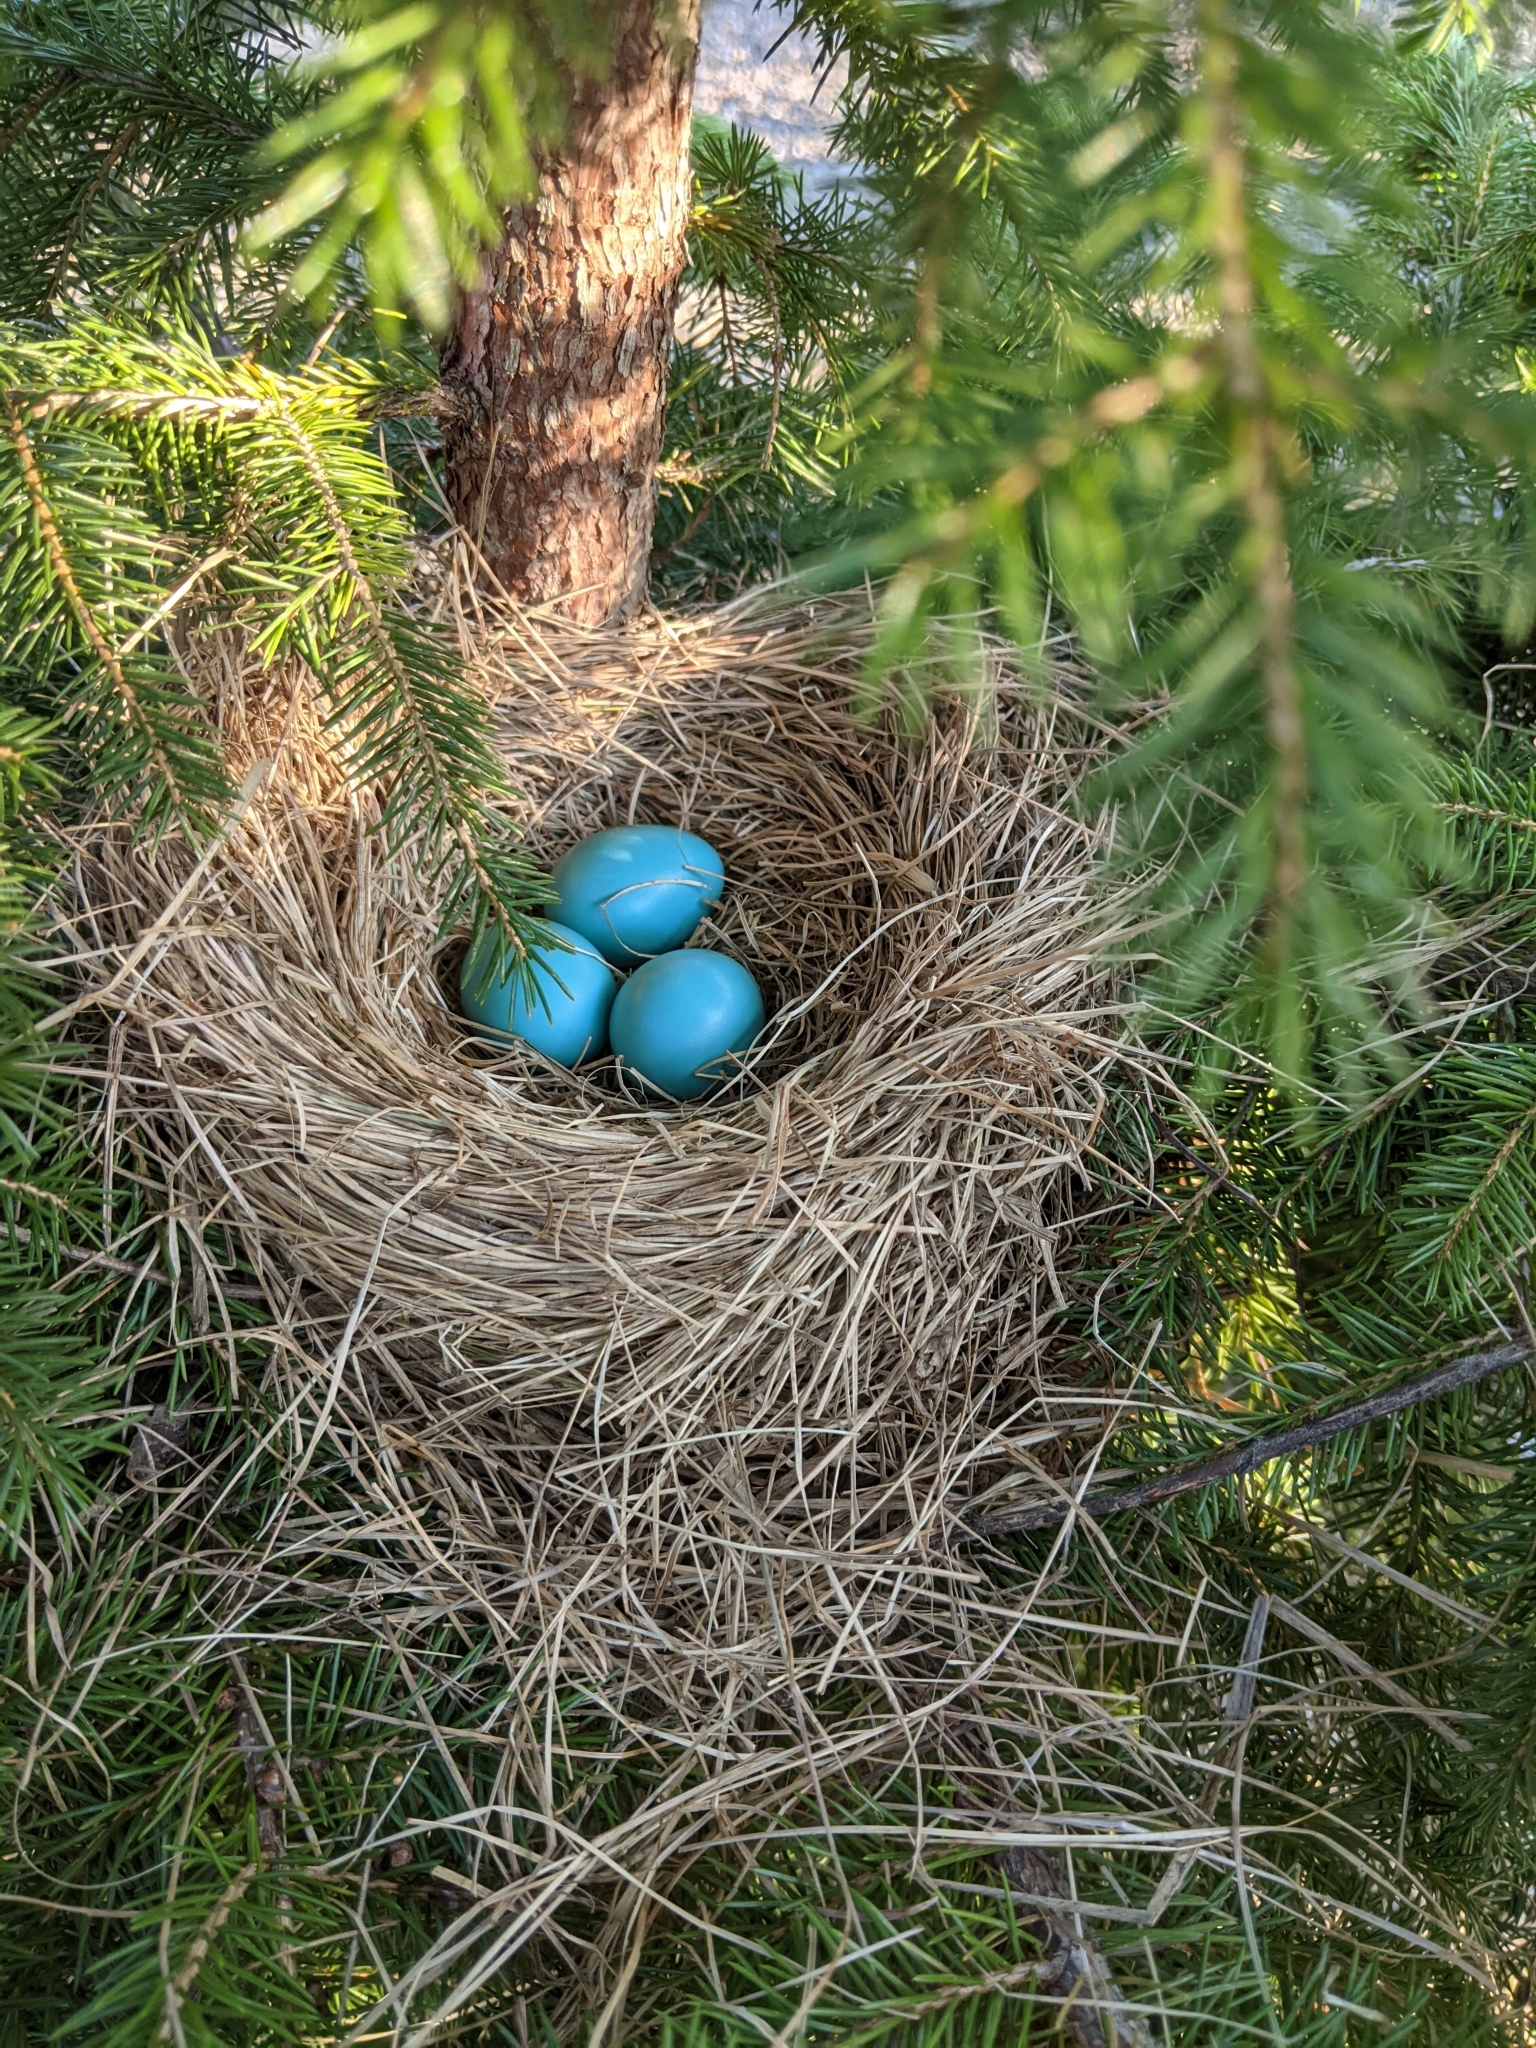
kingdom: Animalia
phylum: Chordata
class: Aves
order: Passeriformes
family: Turdidae
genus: Turdus
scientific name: Turdus migratorius
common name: American robin
